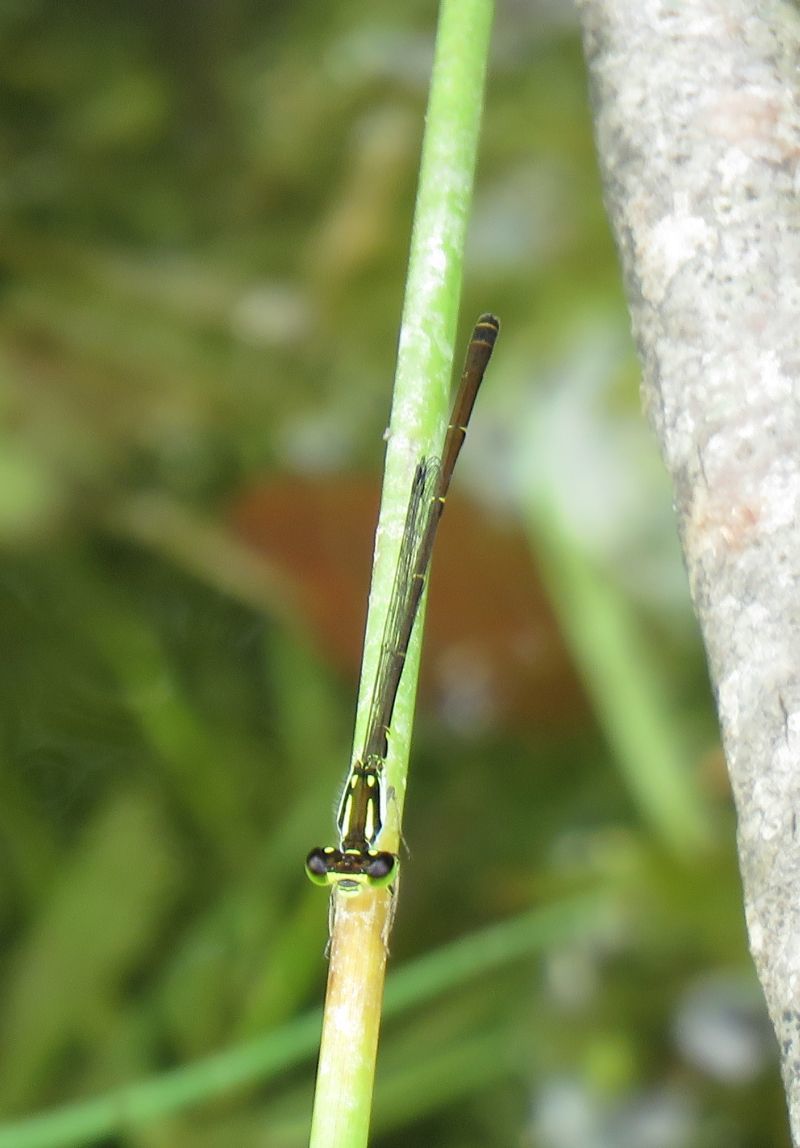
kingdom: Animalia
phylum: Arthropoda
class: Insecta
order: Odonata
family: Coenagrionidae
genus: Ischnura
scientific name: Ischnura posita
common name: Fragile forktail
